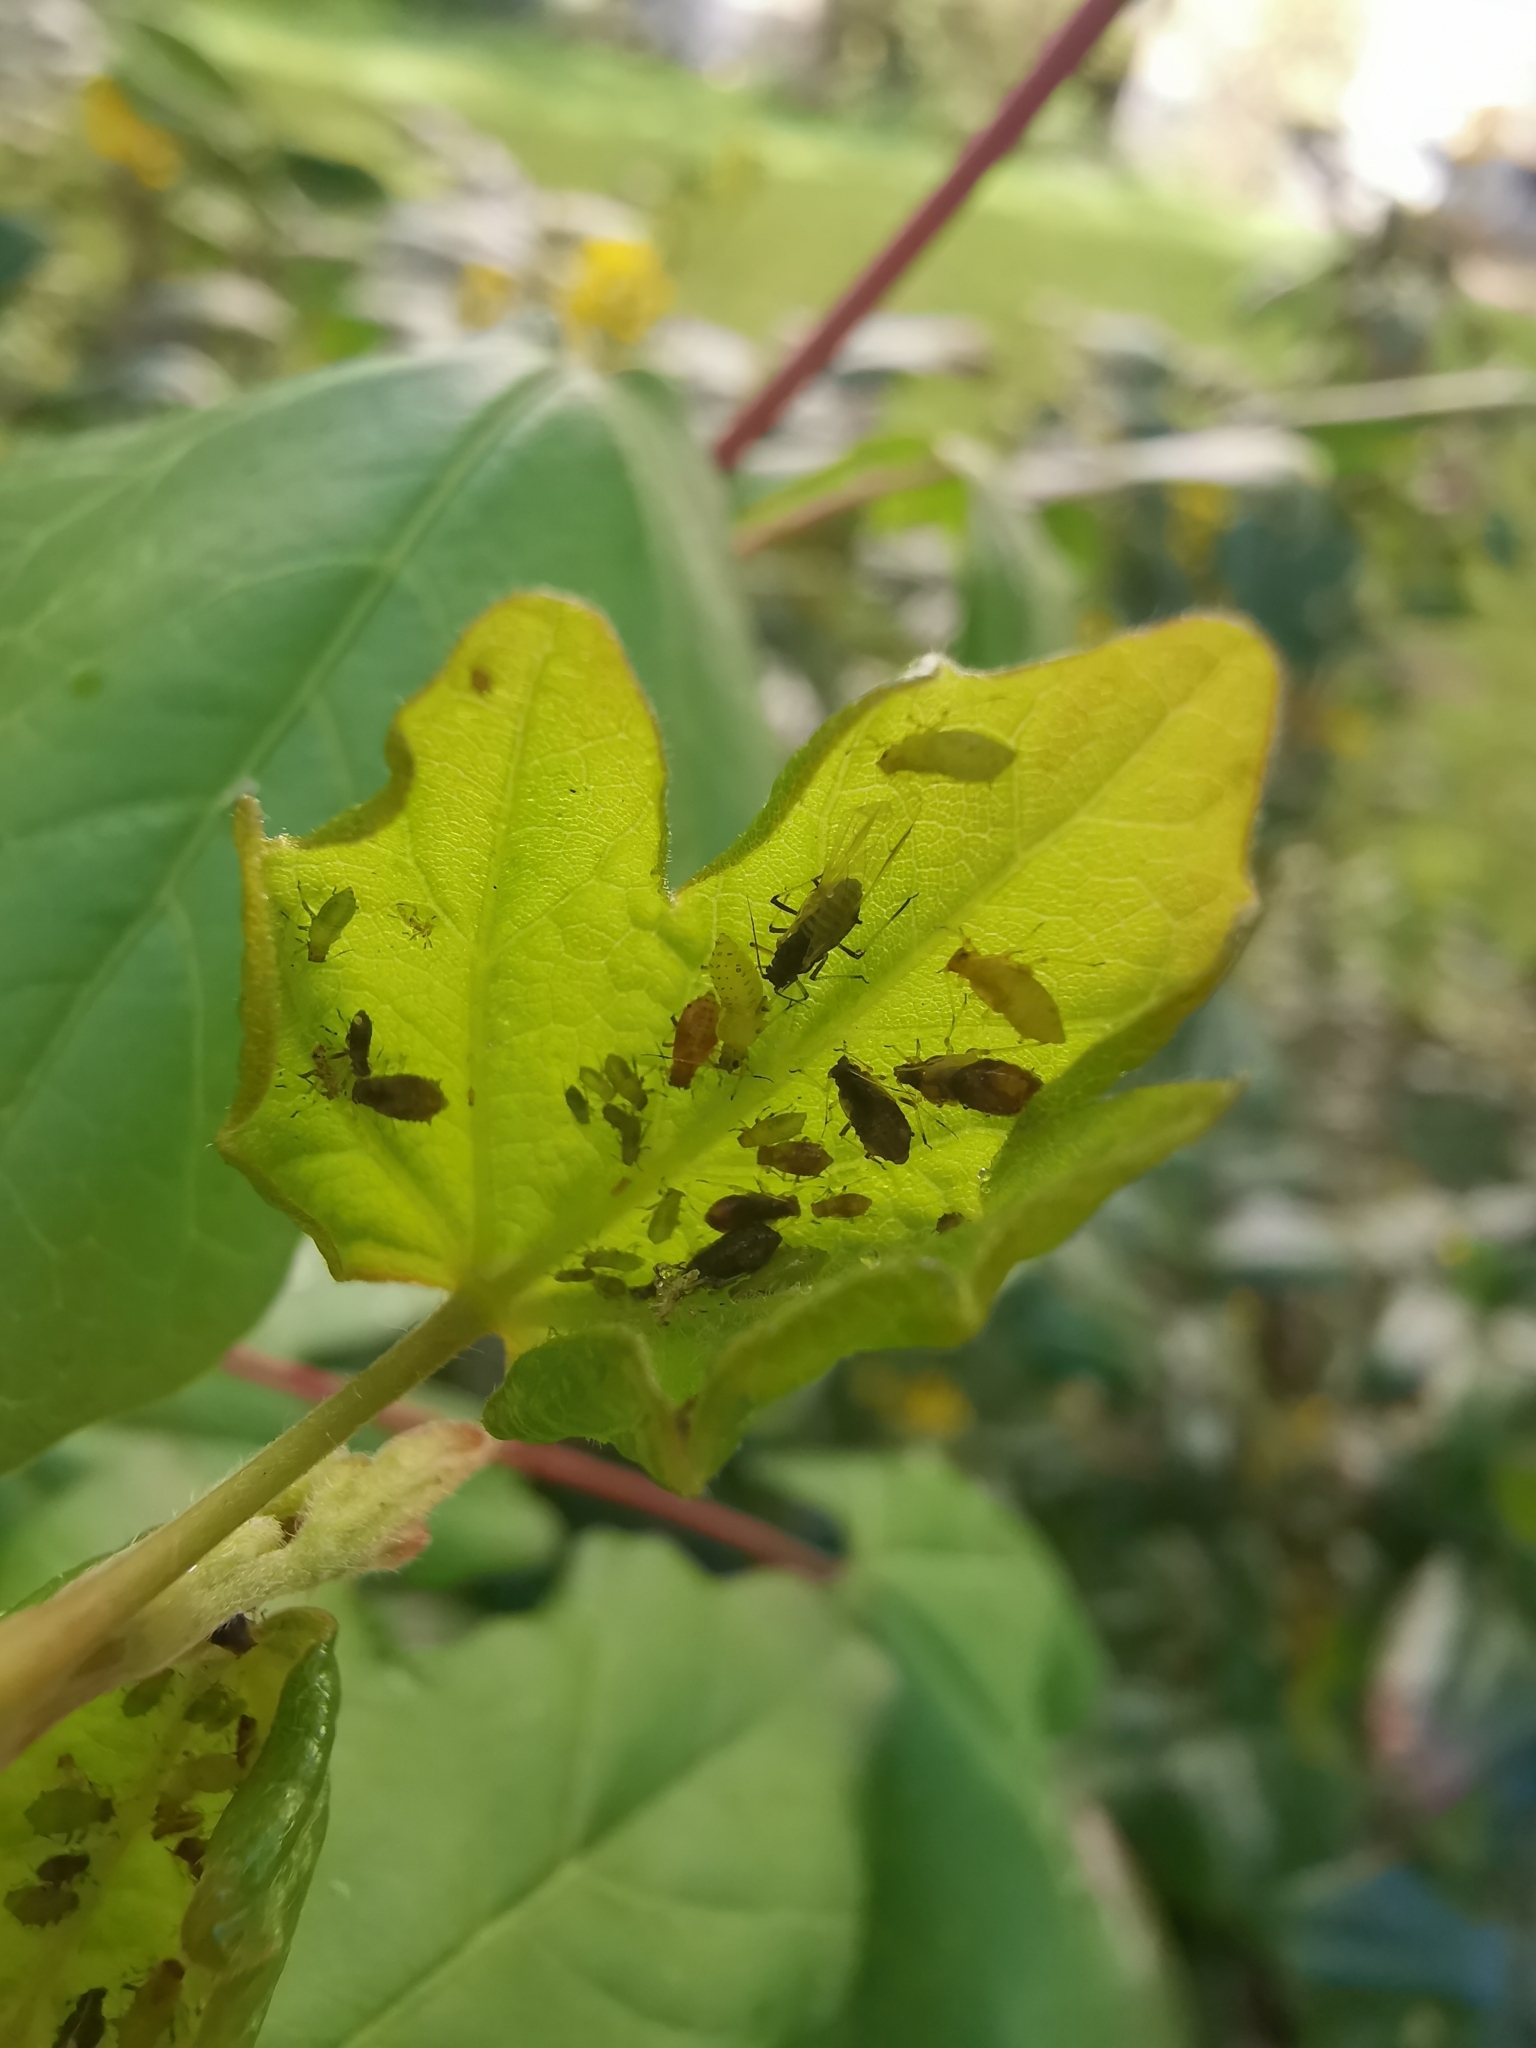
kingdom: Animalia
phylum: Arthropoda
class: Insecta
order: Hemiptera
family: Aphididae
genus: Periphyllus
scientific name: Periphyllus testudinaceus
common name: Common maple aphid
